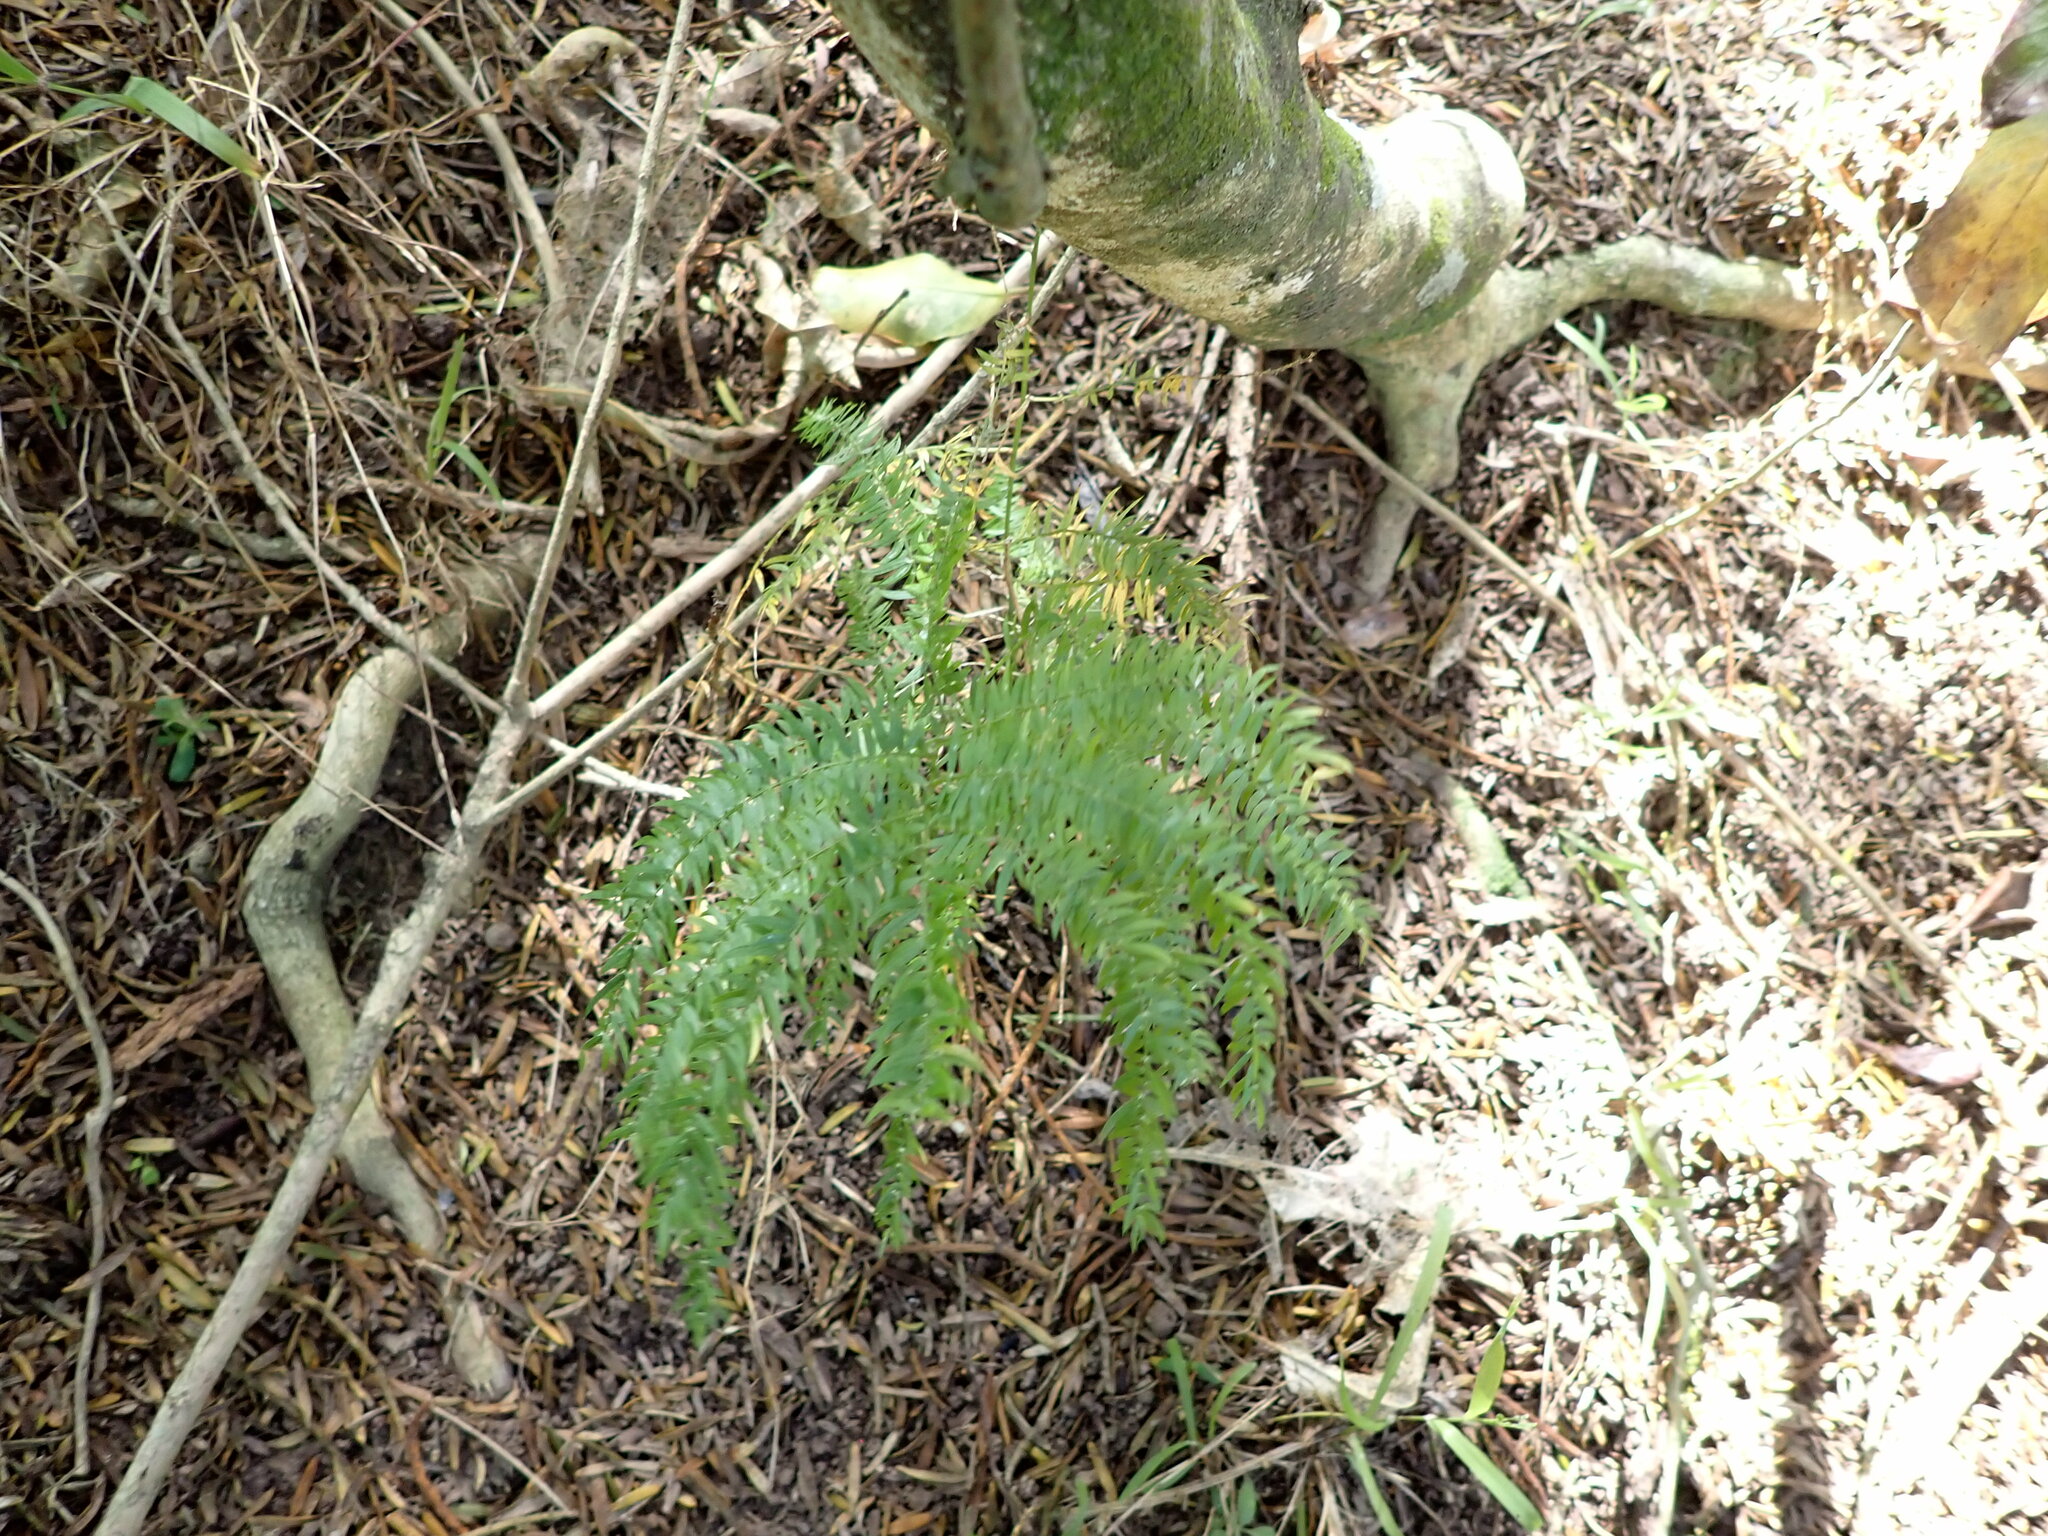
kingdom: Plantae
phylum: Tracheophyta
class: Liliopsida
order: Asparagales
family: Asparagaceae
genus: Asparagus
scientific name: Asparagus scandens
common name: Asparagus-fern
